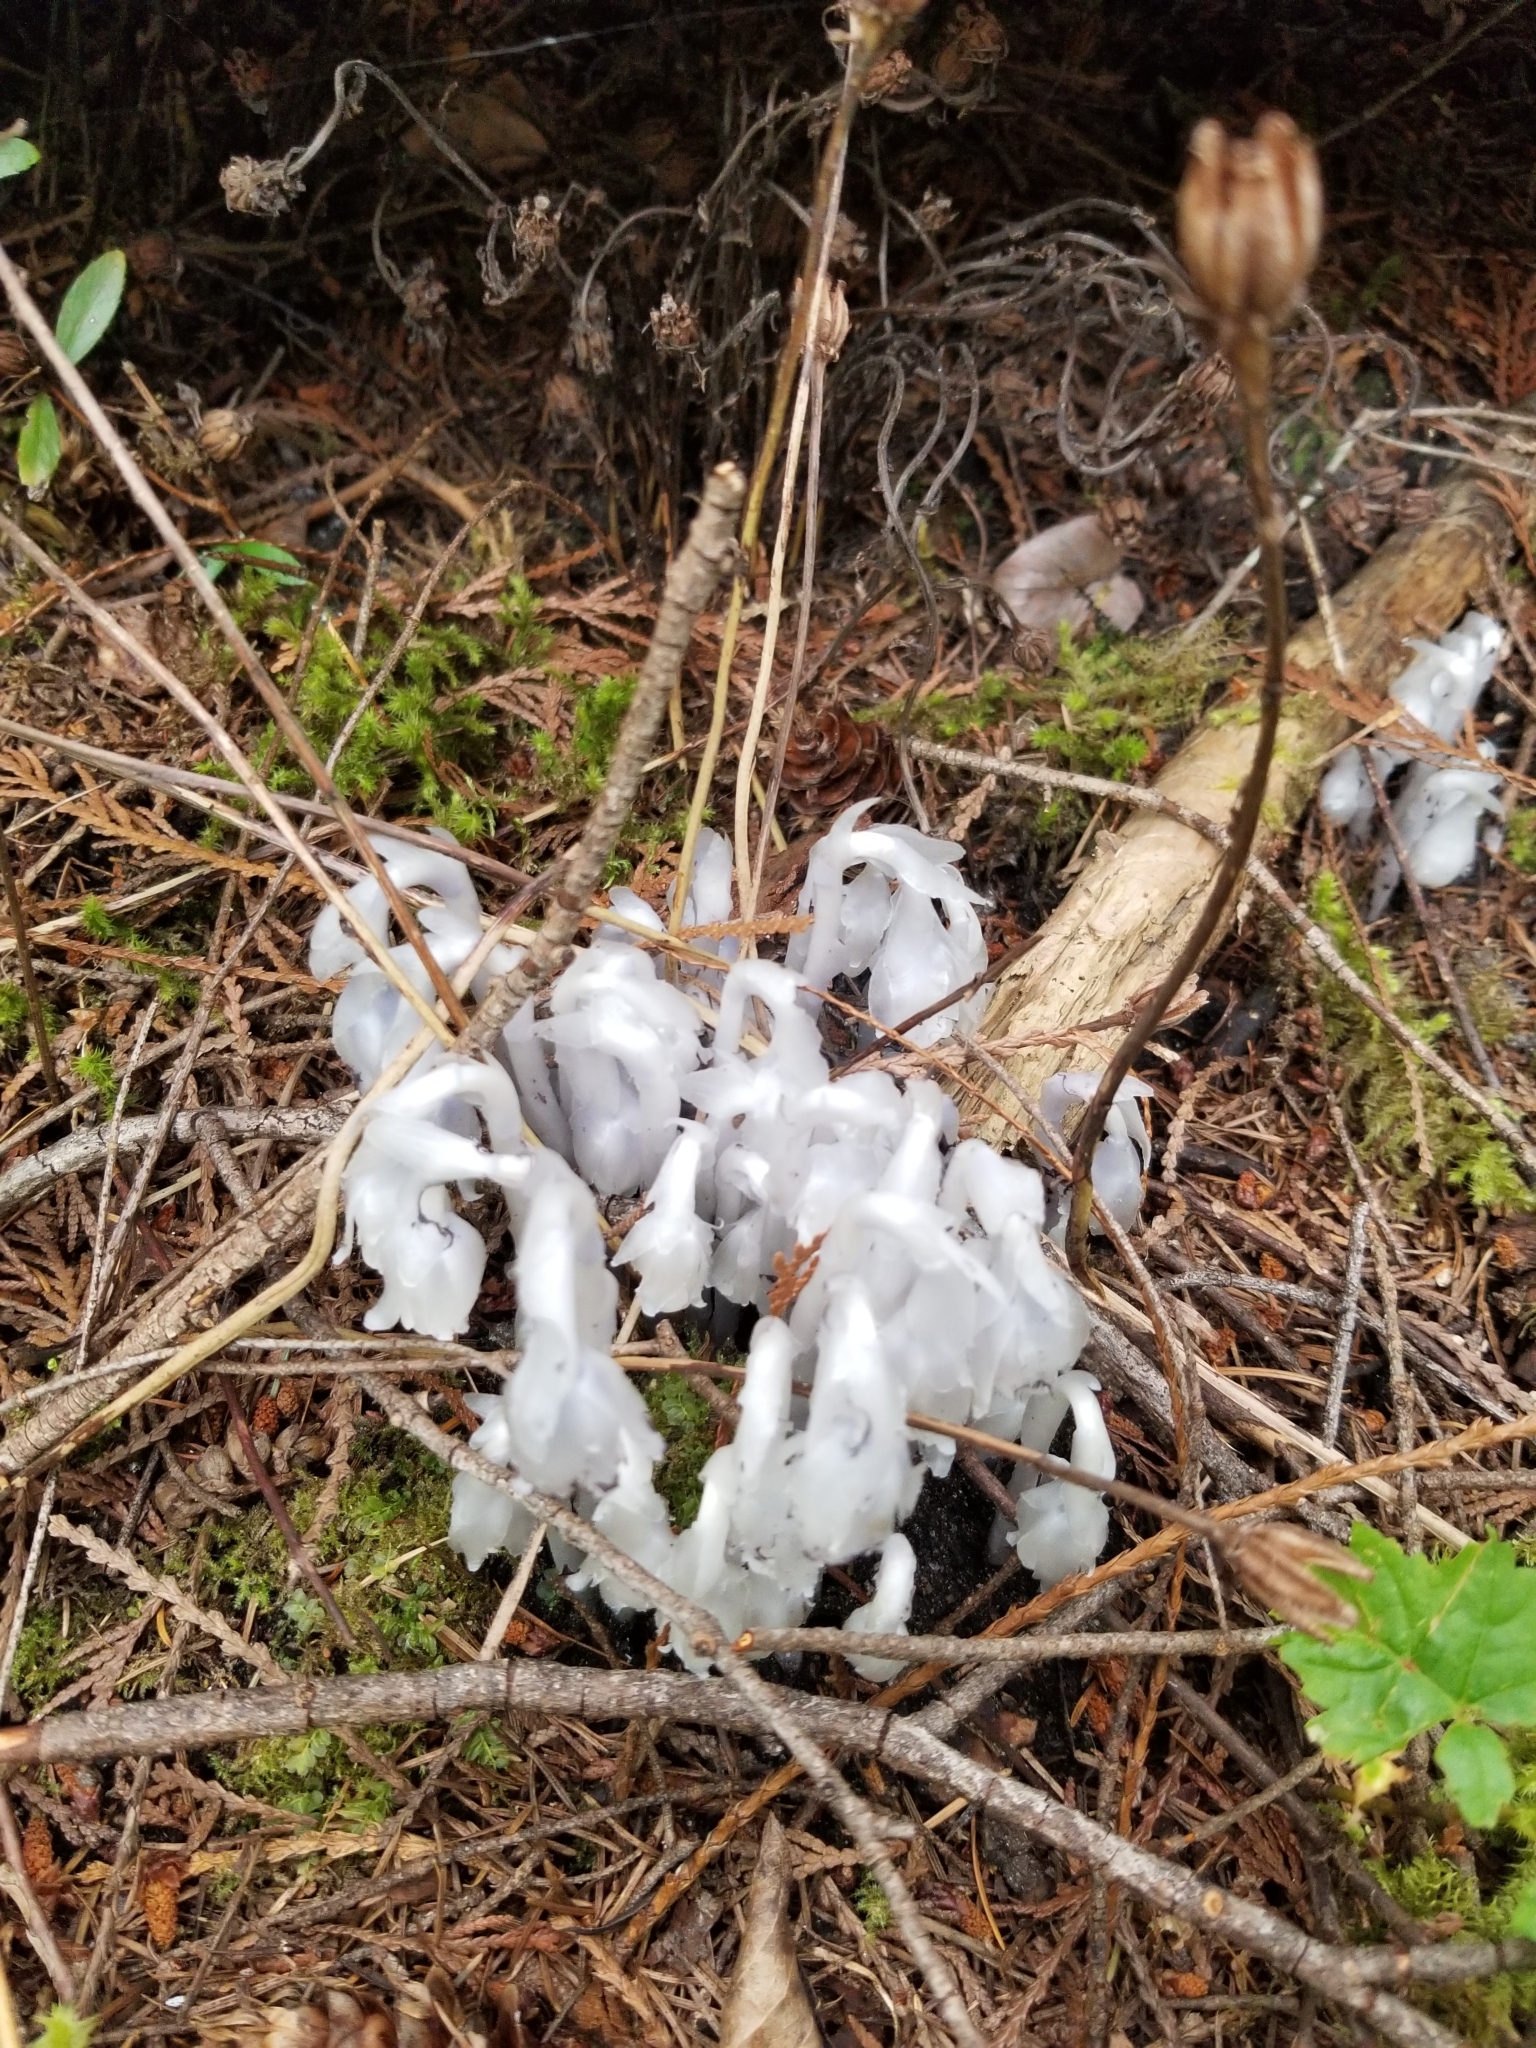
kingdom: Plantae
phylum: Tracheophyta
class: Magnoliopsida
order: Ericales
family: Ericaceae
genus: Monotropa
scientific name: Monotropa uniflora
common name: Convulsion root
